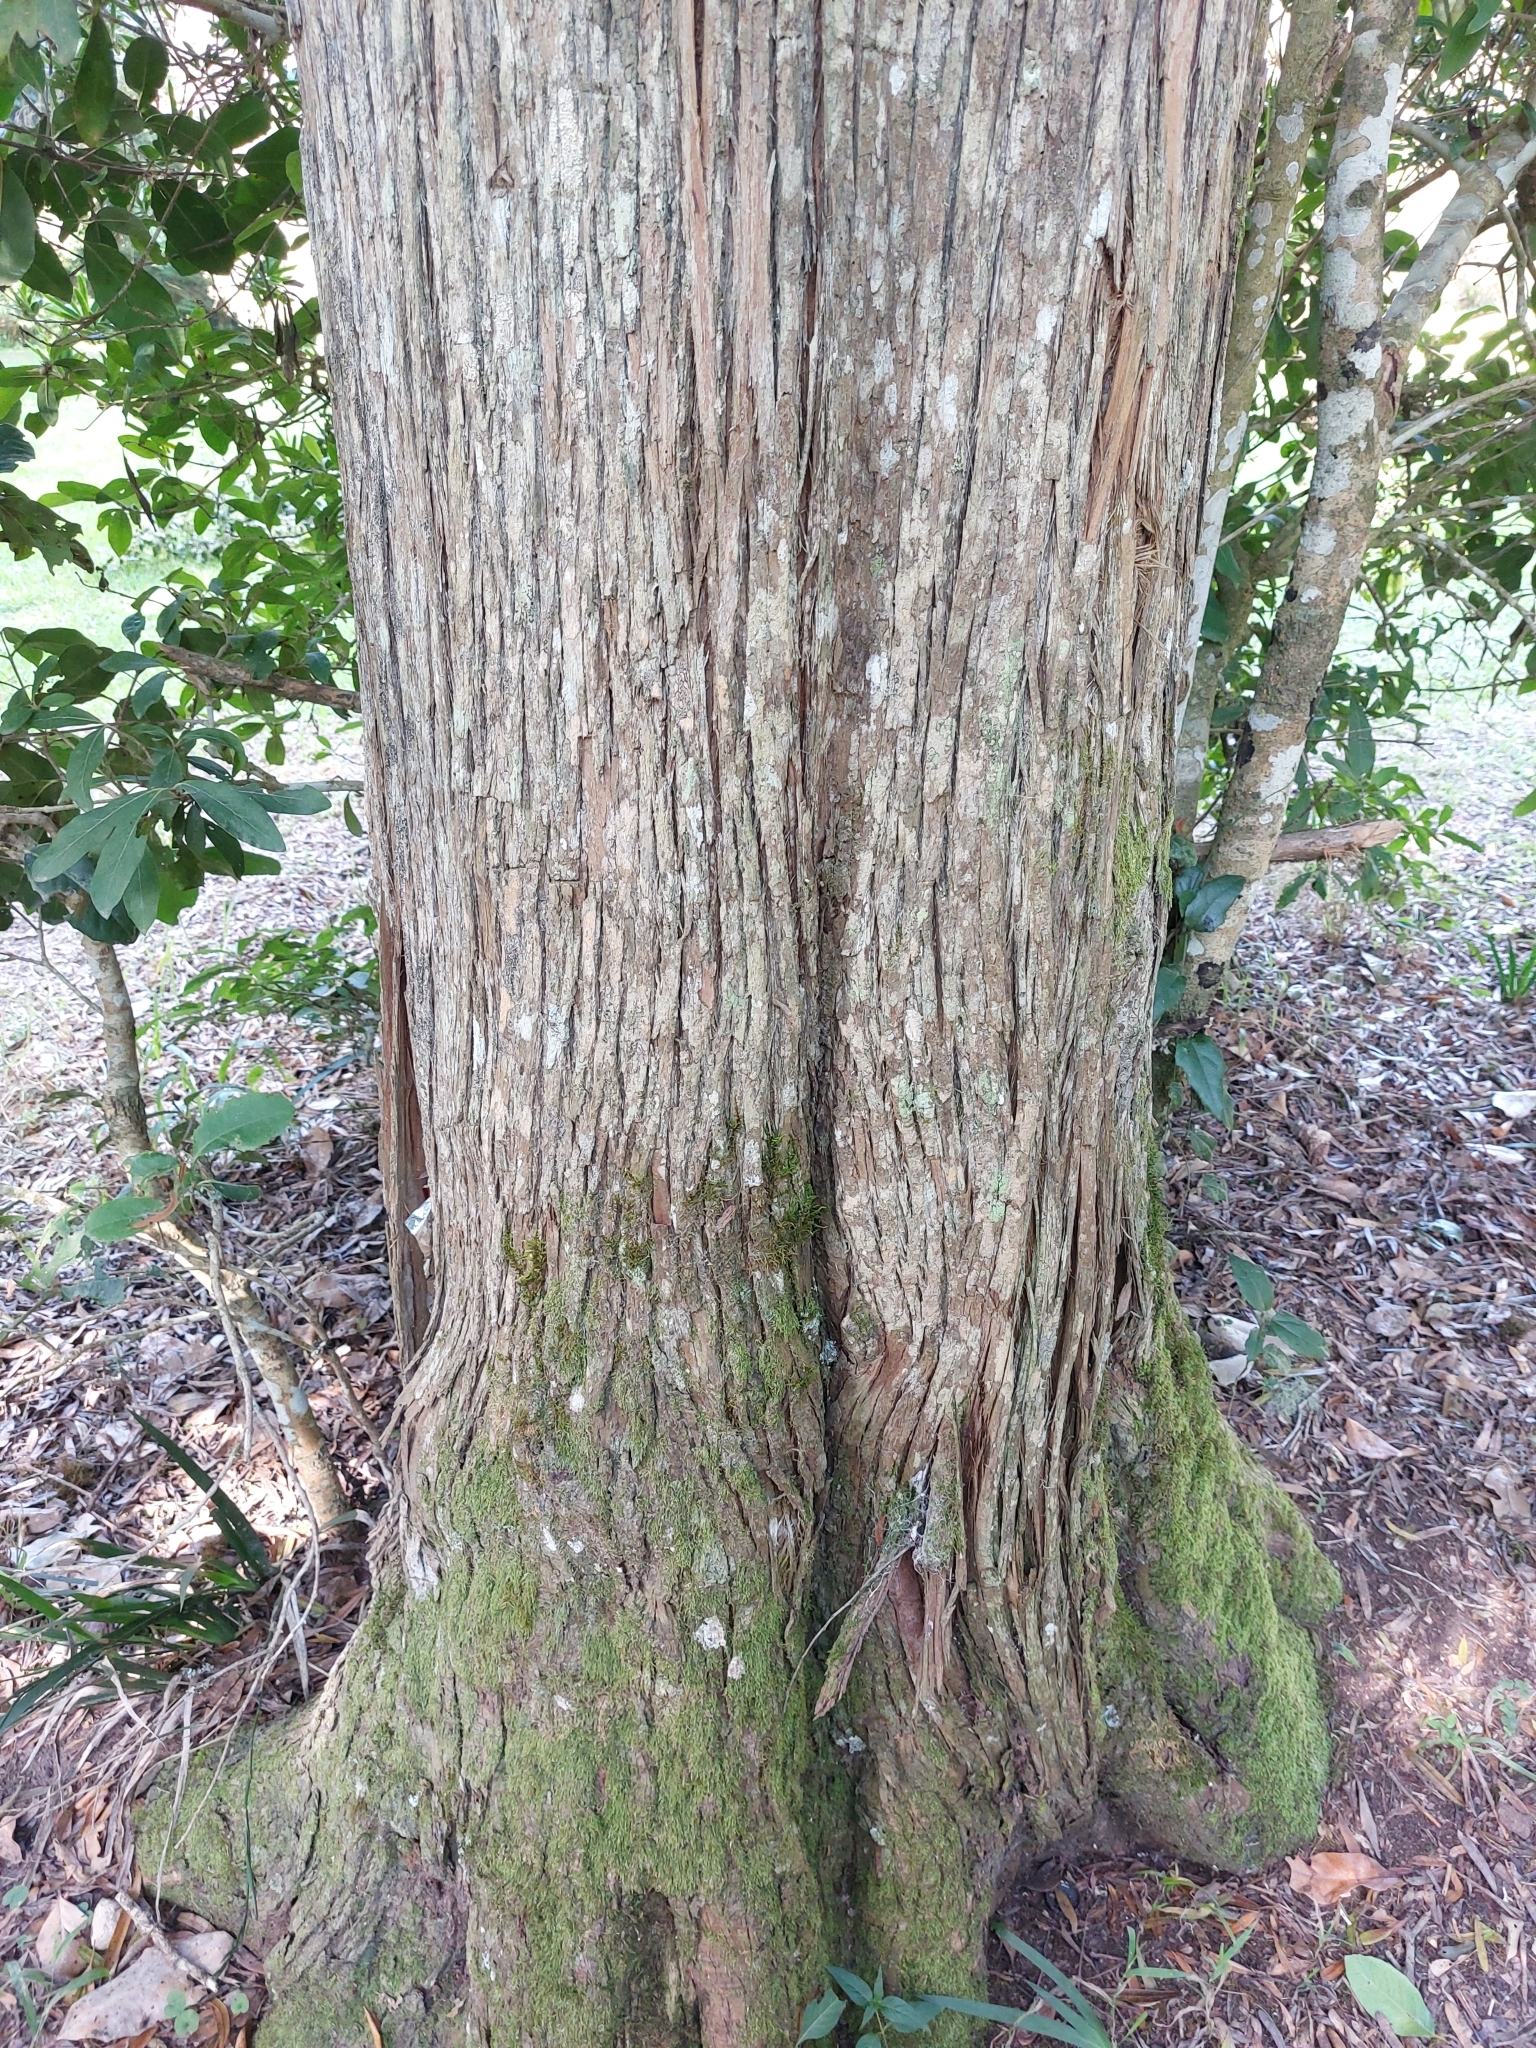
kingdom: Plantae
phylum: Tracheophyta
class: Pinopsida
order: Pinales
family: Podocarpaceae
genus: Podocarpus
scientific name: Podocarpus latifolius
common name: True yellowwood
